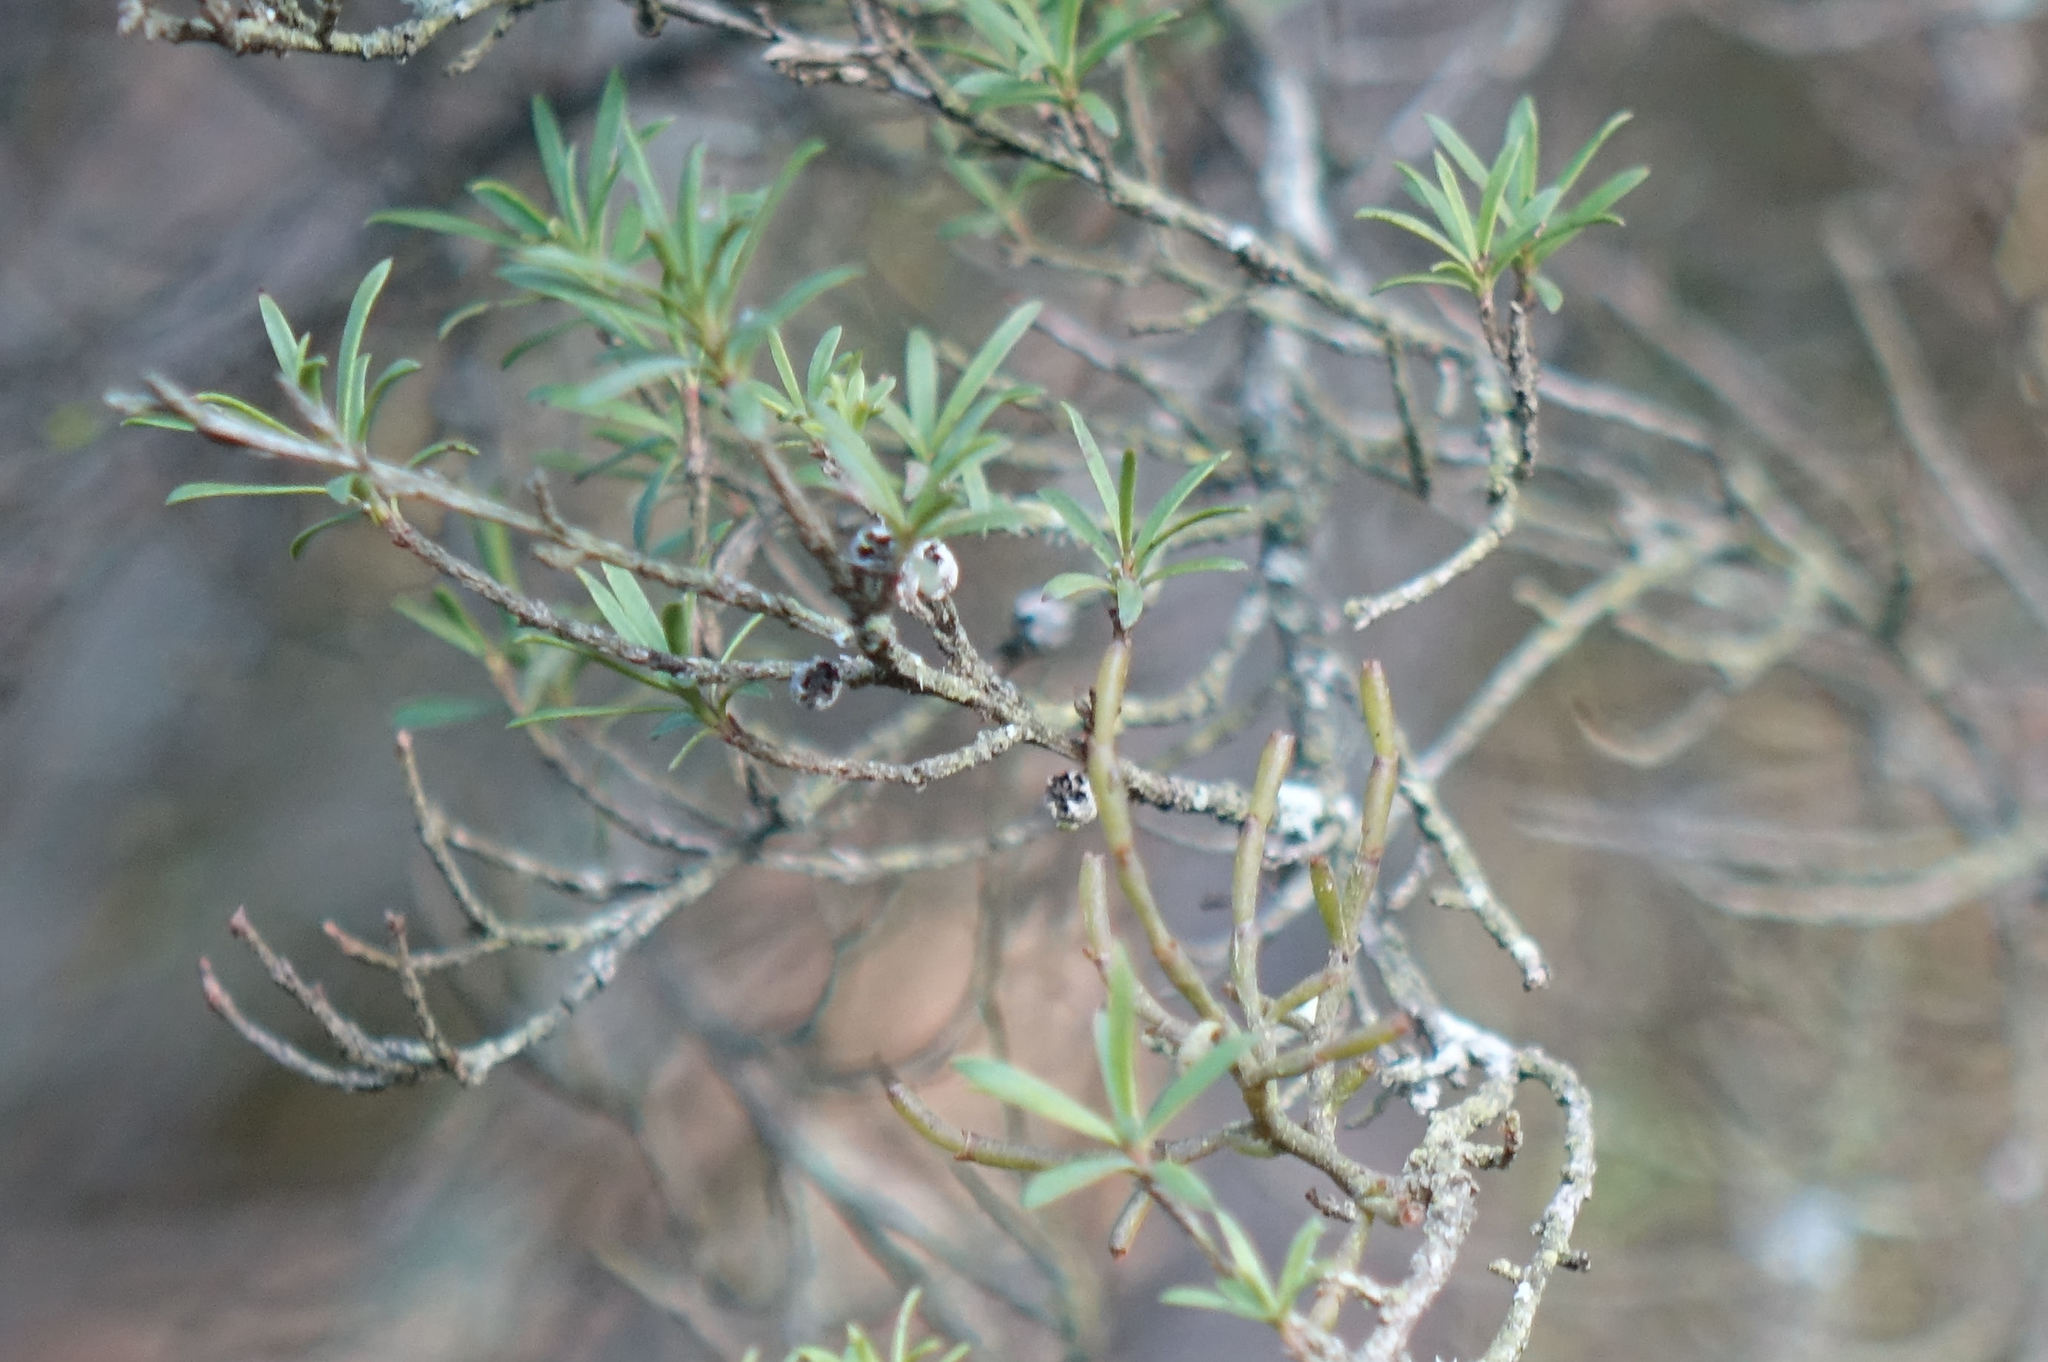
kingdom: Plantae
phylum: Tracheophyta
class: Magnoliopsida
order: Santalales
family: Viscaceae
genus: Korthalsella
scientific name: Korthalsella salicornioides
